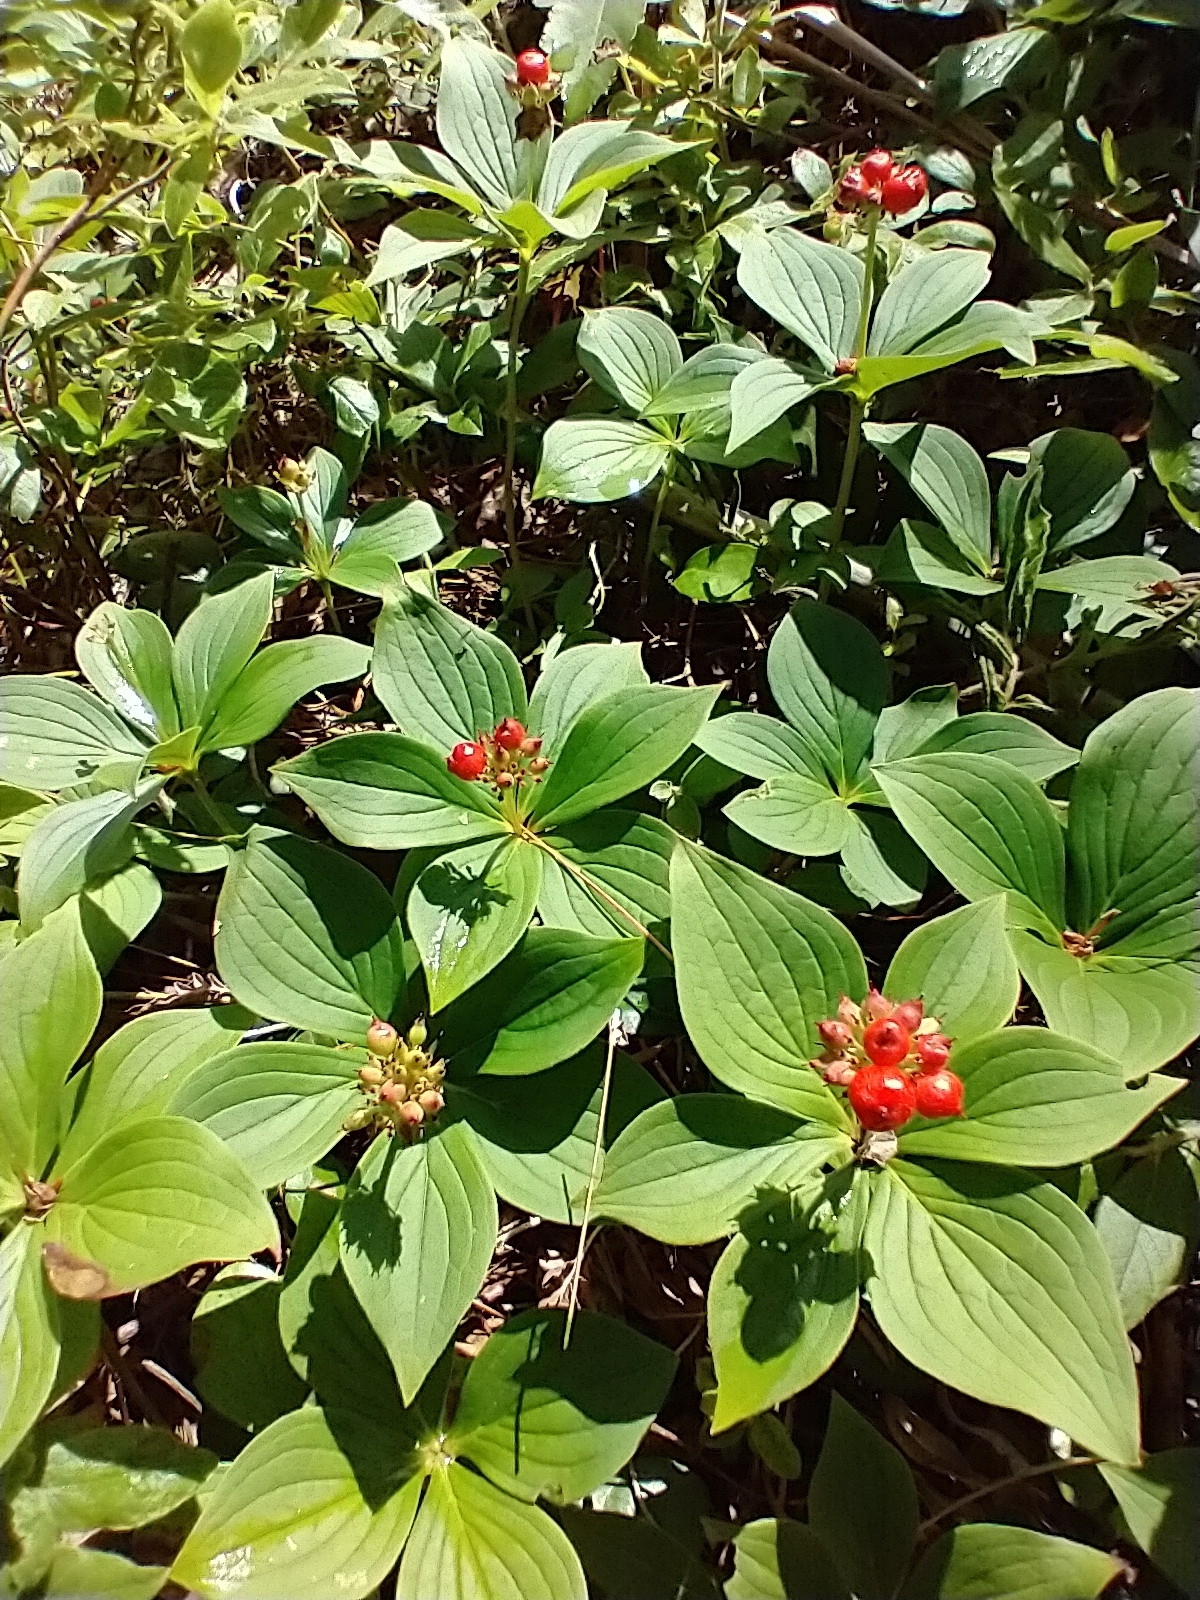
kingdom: Plantae
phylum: Tracheophyta
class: Magnoliopsida
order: Cornales
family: Cornaceae
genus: Cornus
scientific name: Cornus canadensis
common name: Creeping dogwood
